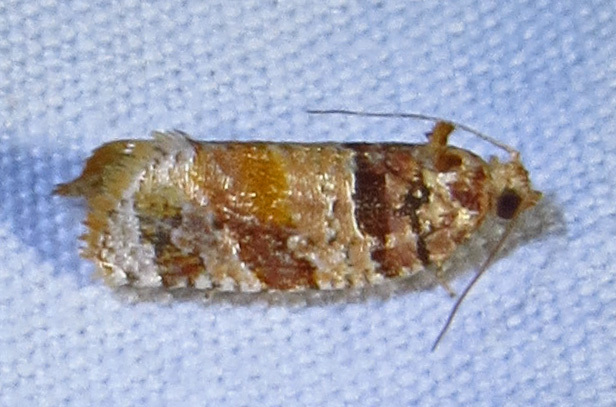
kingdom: Animalia
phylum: Arthropoda
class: Insecta
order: Lepidoptera
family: Tortricidae
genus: Argyrotaenia
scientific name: Argyrotaenia kimballi
